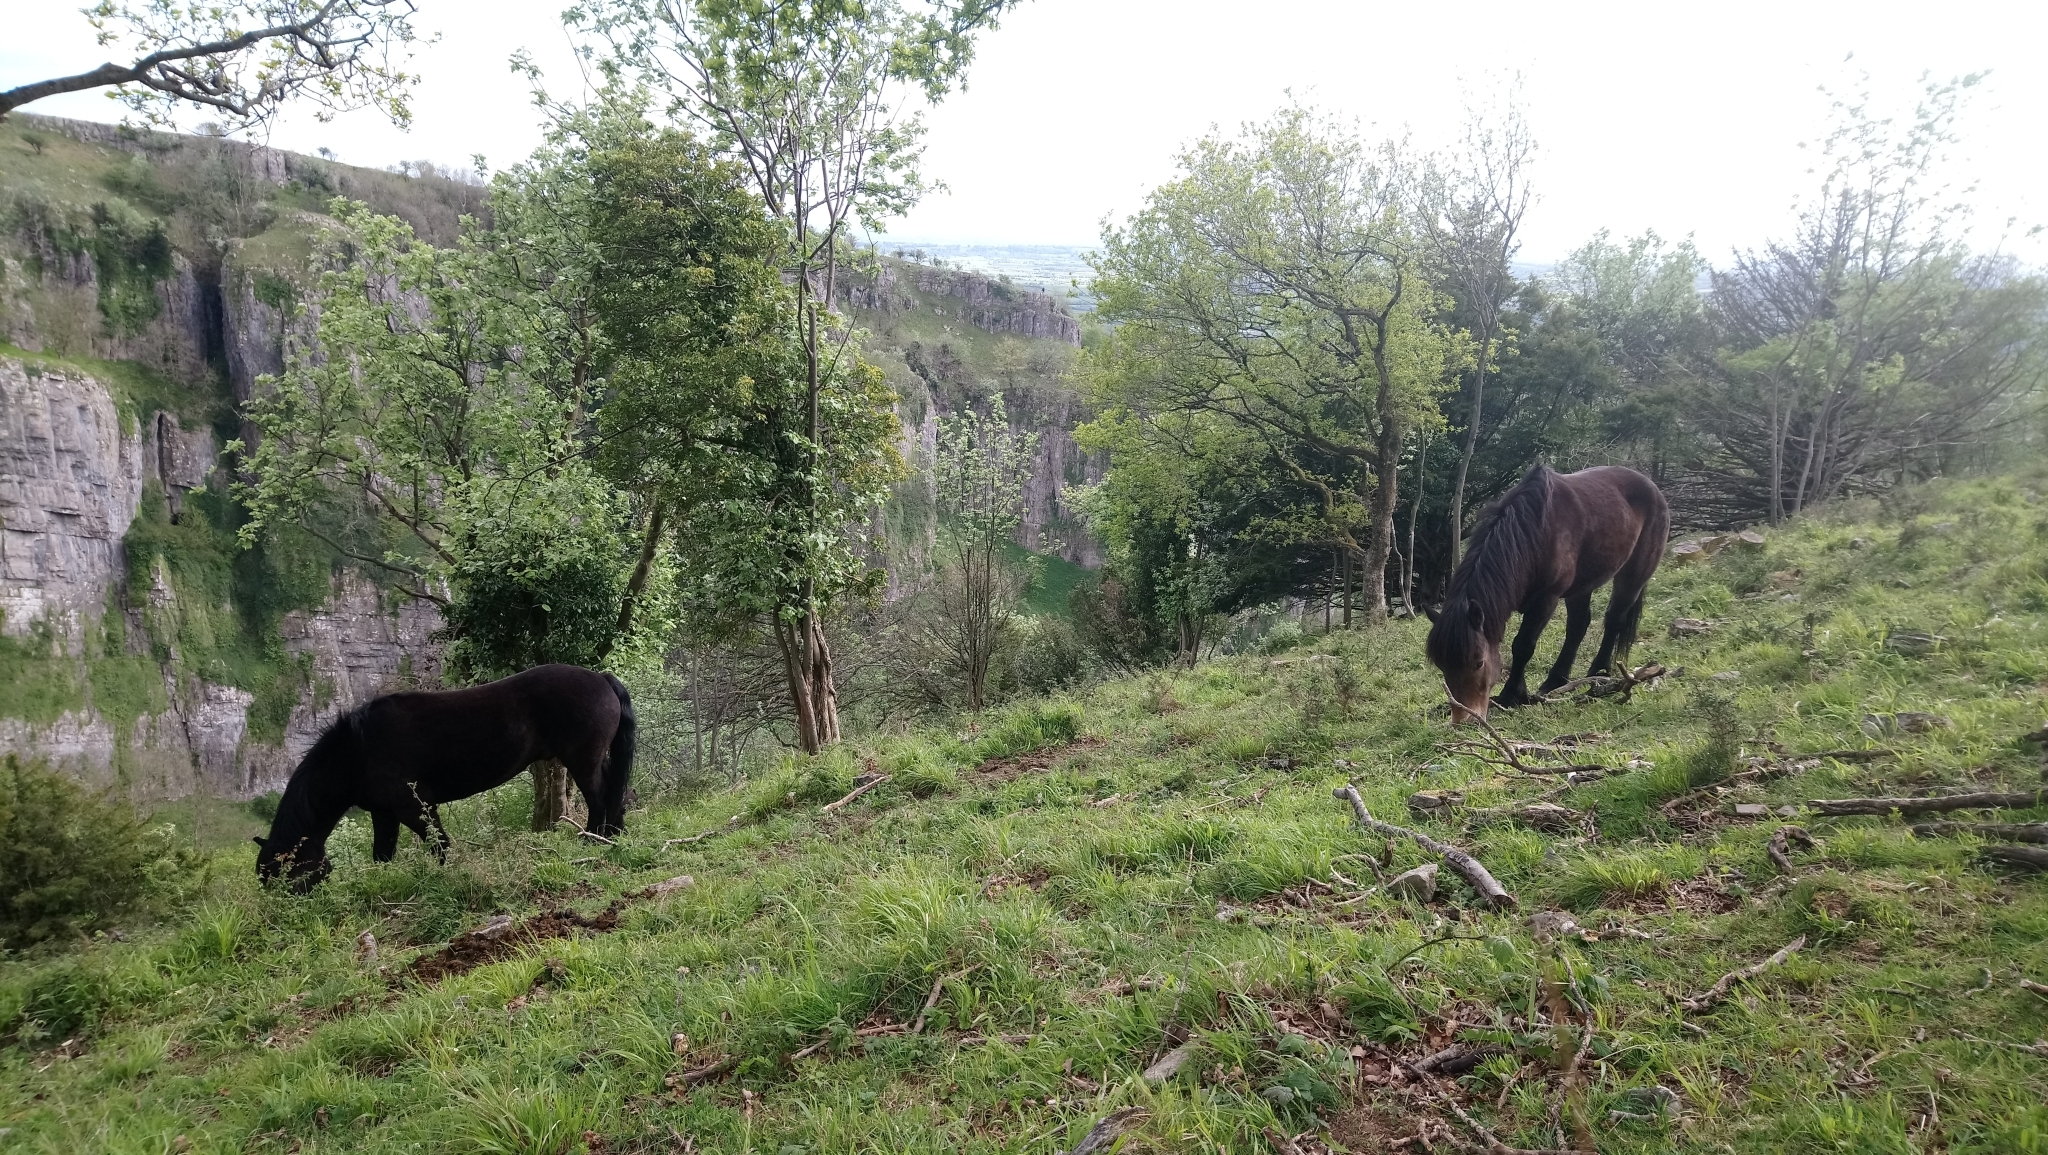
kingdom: Animalia
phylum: Chordata
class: Mammalia
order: Perissodactyla
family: Equidae
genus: Equus
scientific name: Equus caballus
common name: Horse
